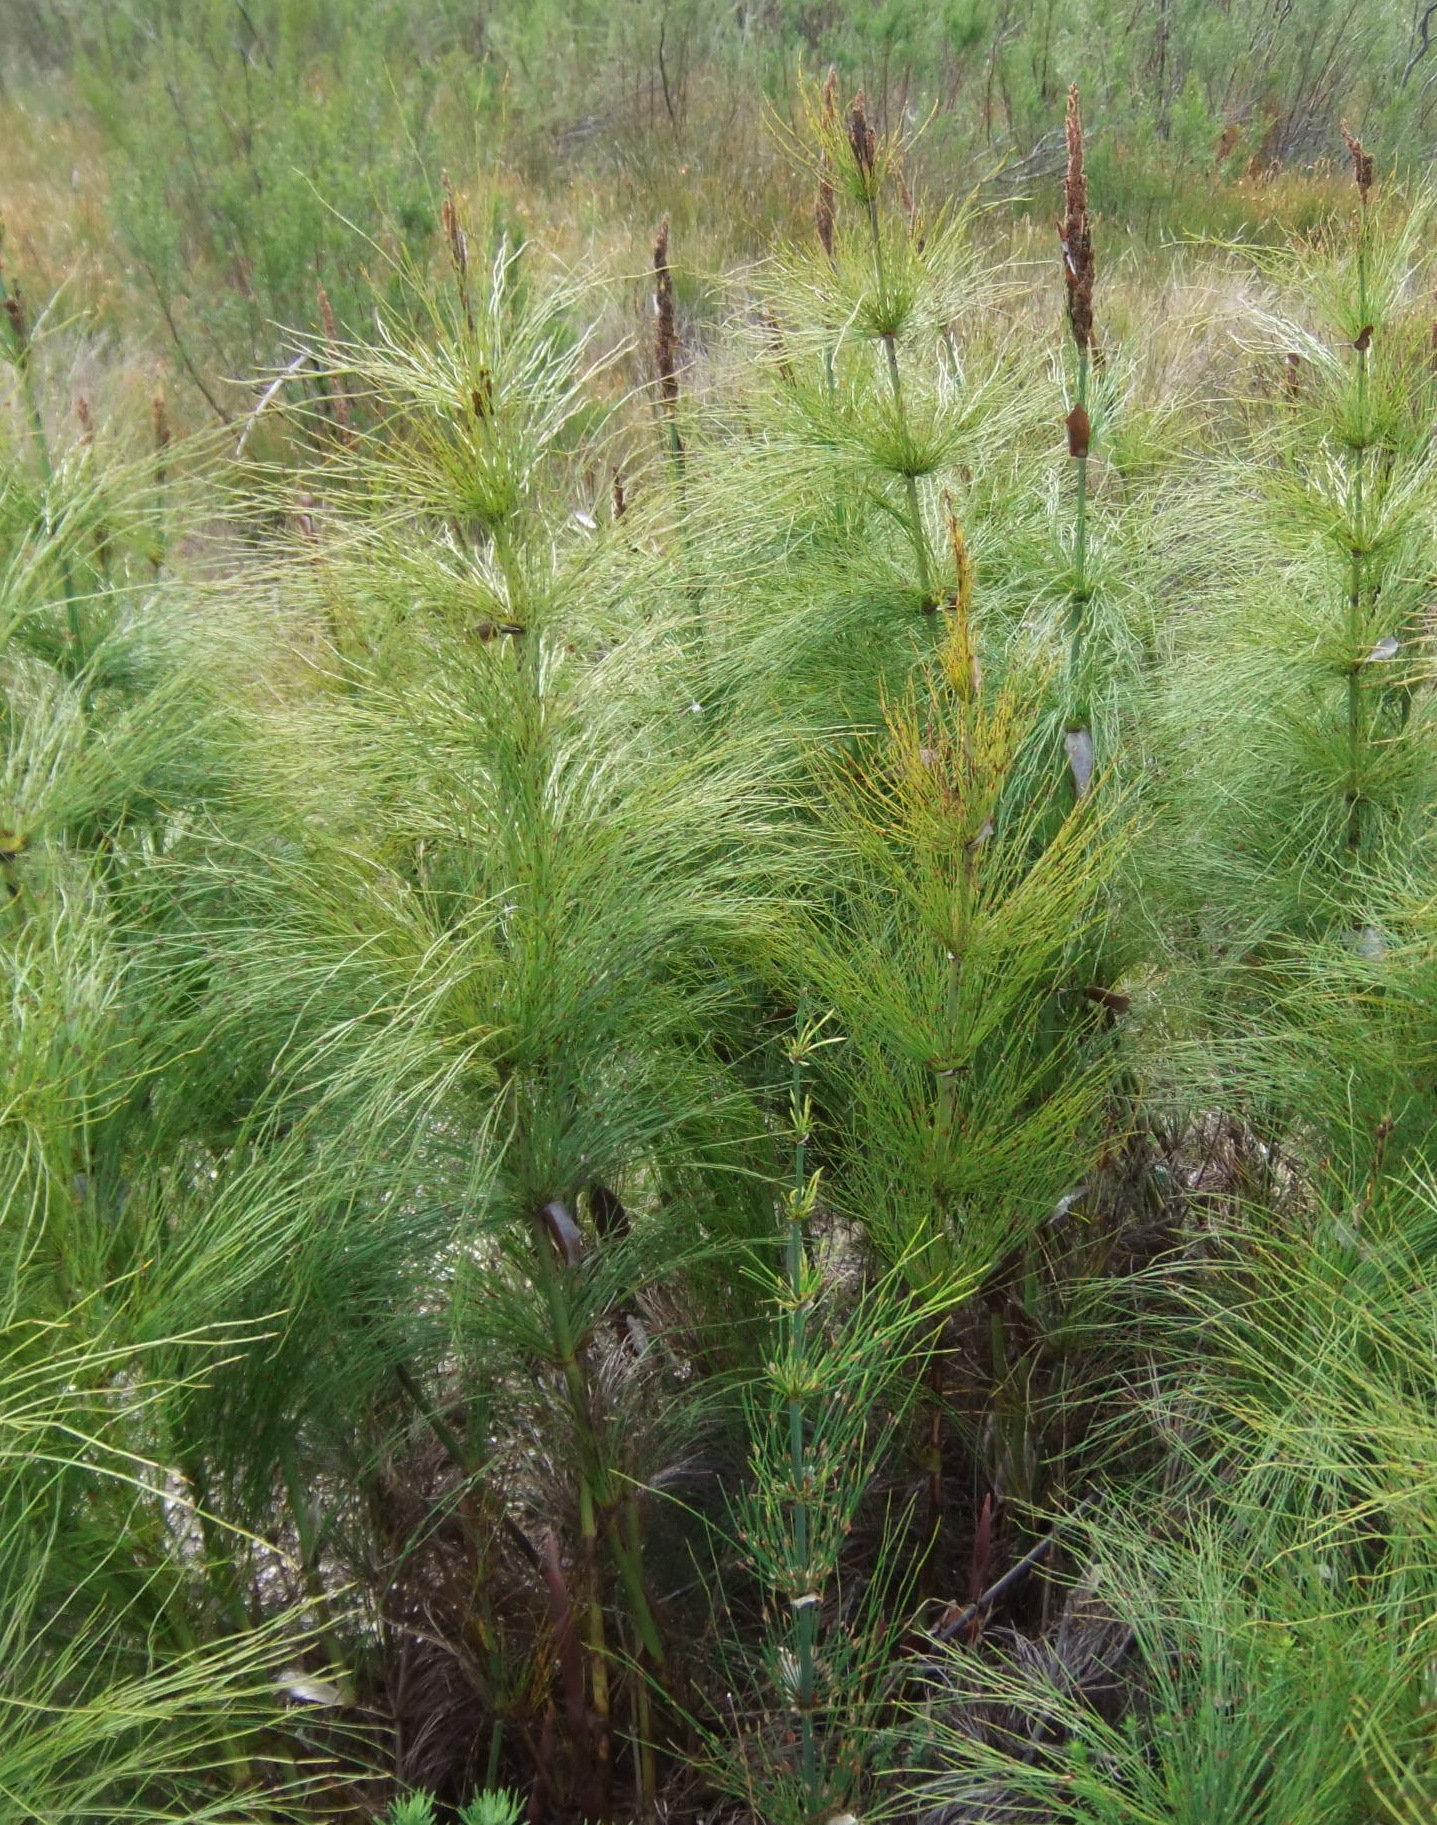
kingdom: Plantae
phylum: Tracheophyta
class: Liliopsida
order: Poales
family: Restionaceae
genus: Elegia
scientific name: Elegia capensis
